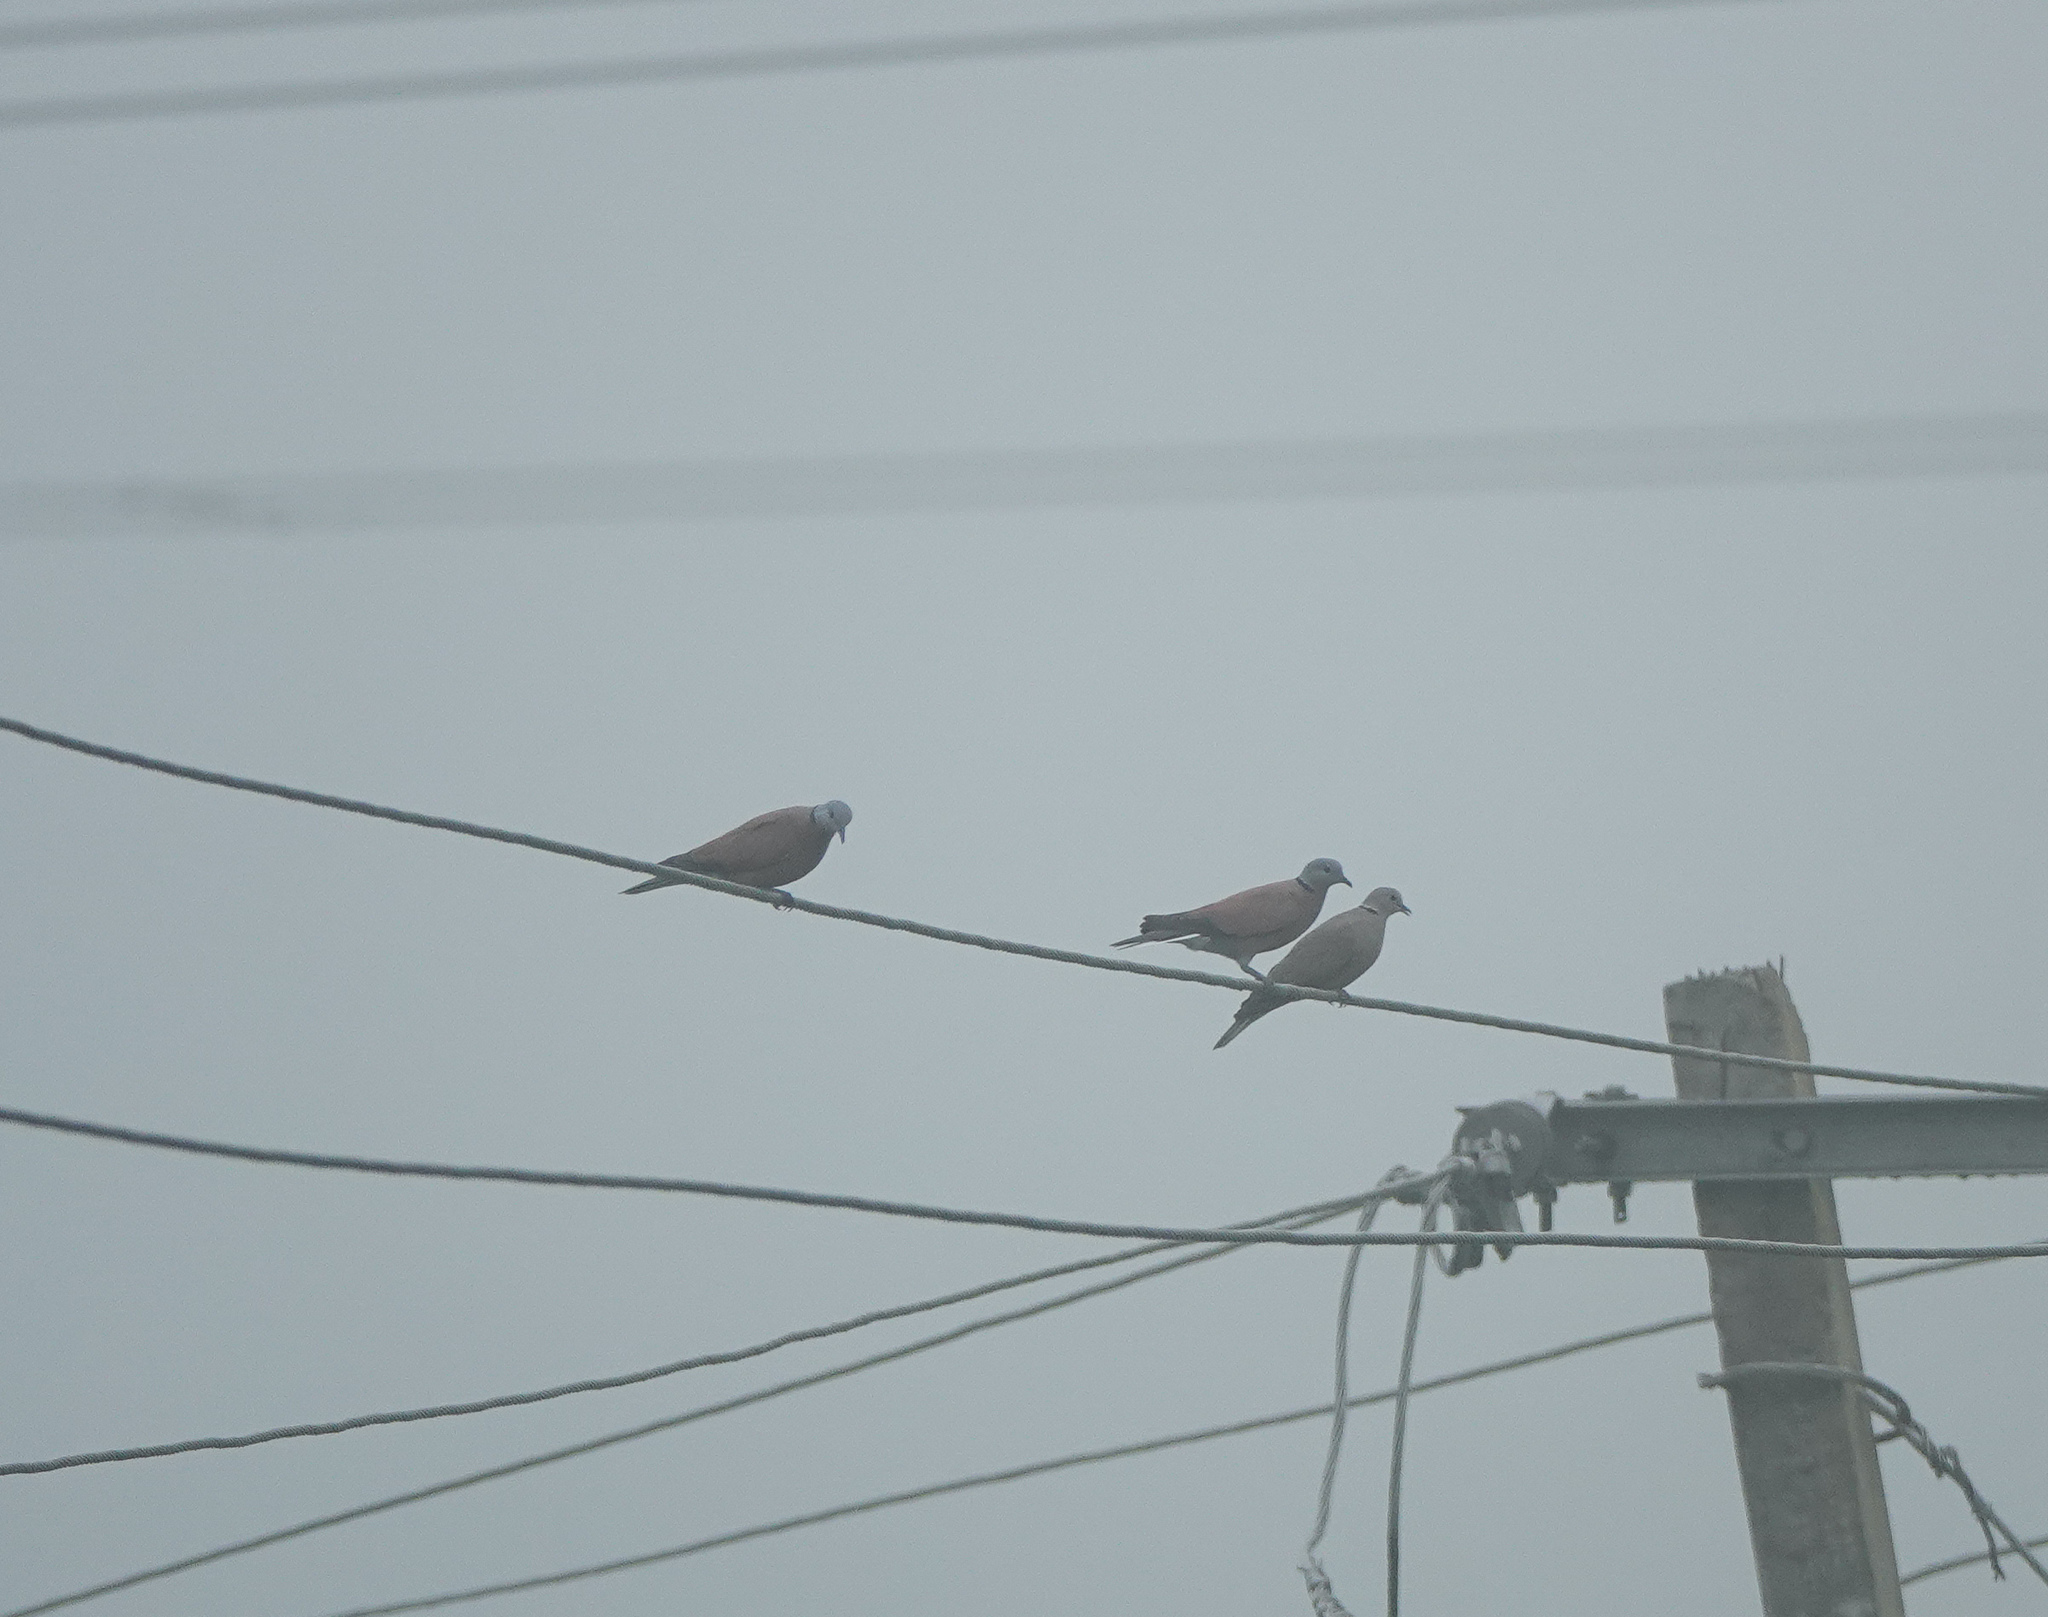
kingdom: Animalia
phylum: Chordata
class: Aves
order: Columbiformes
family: Columbidae
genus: Streptopelia
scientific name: Streptopelia tranquebarica
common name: Red turtle dove
